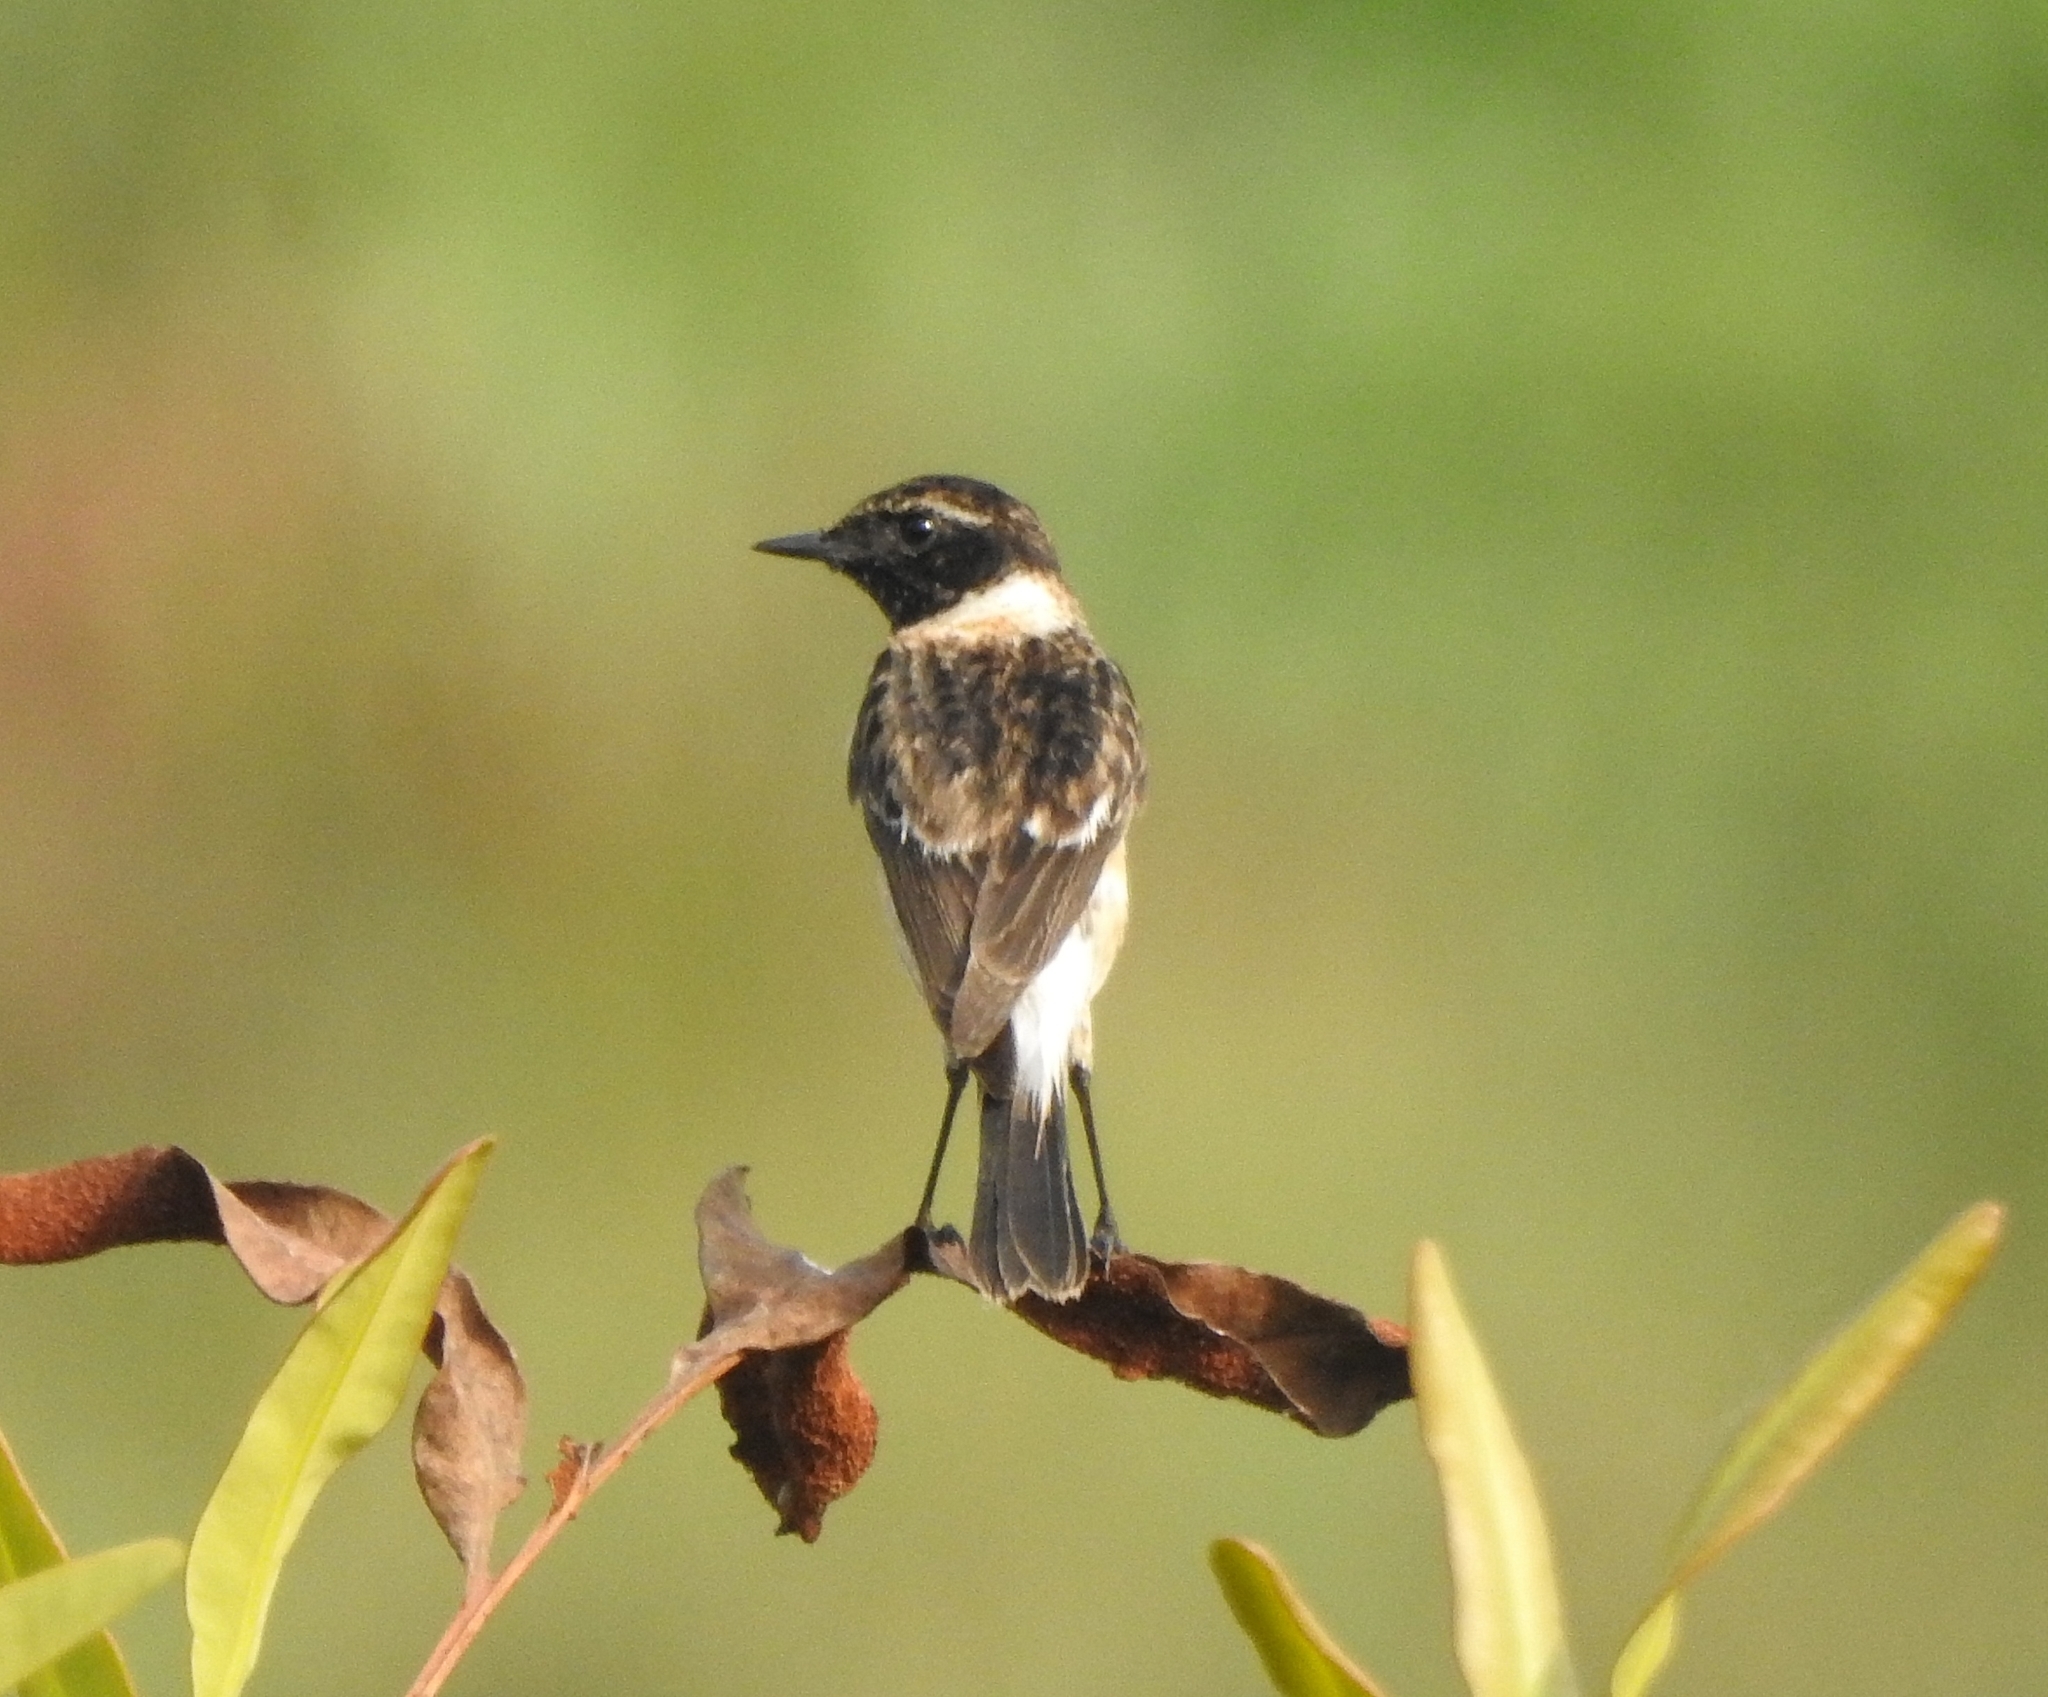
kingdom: Animalia
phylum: Chordata
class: Aves
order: Passeriformes
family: Muscicapidae
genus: Saxicola
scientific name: Saxicola maurus
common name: Siberian stonechat
